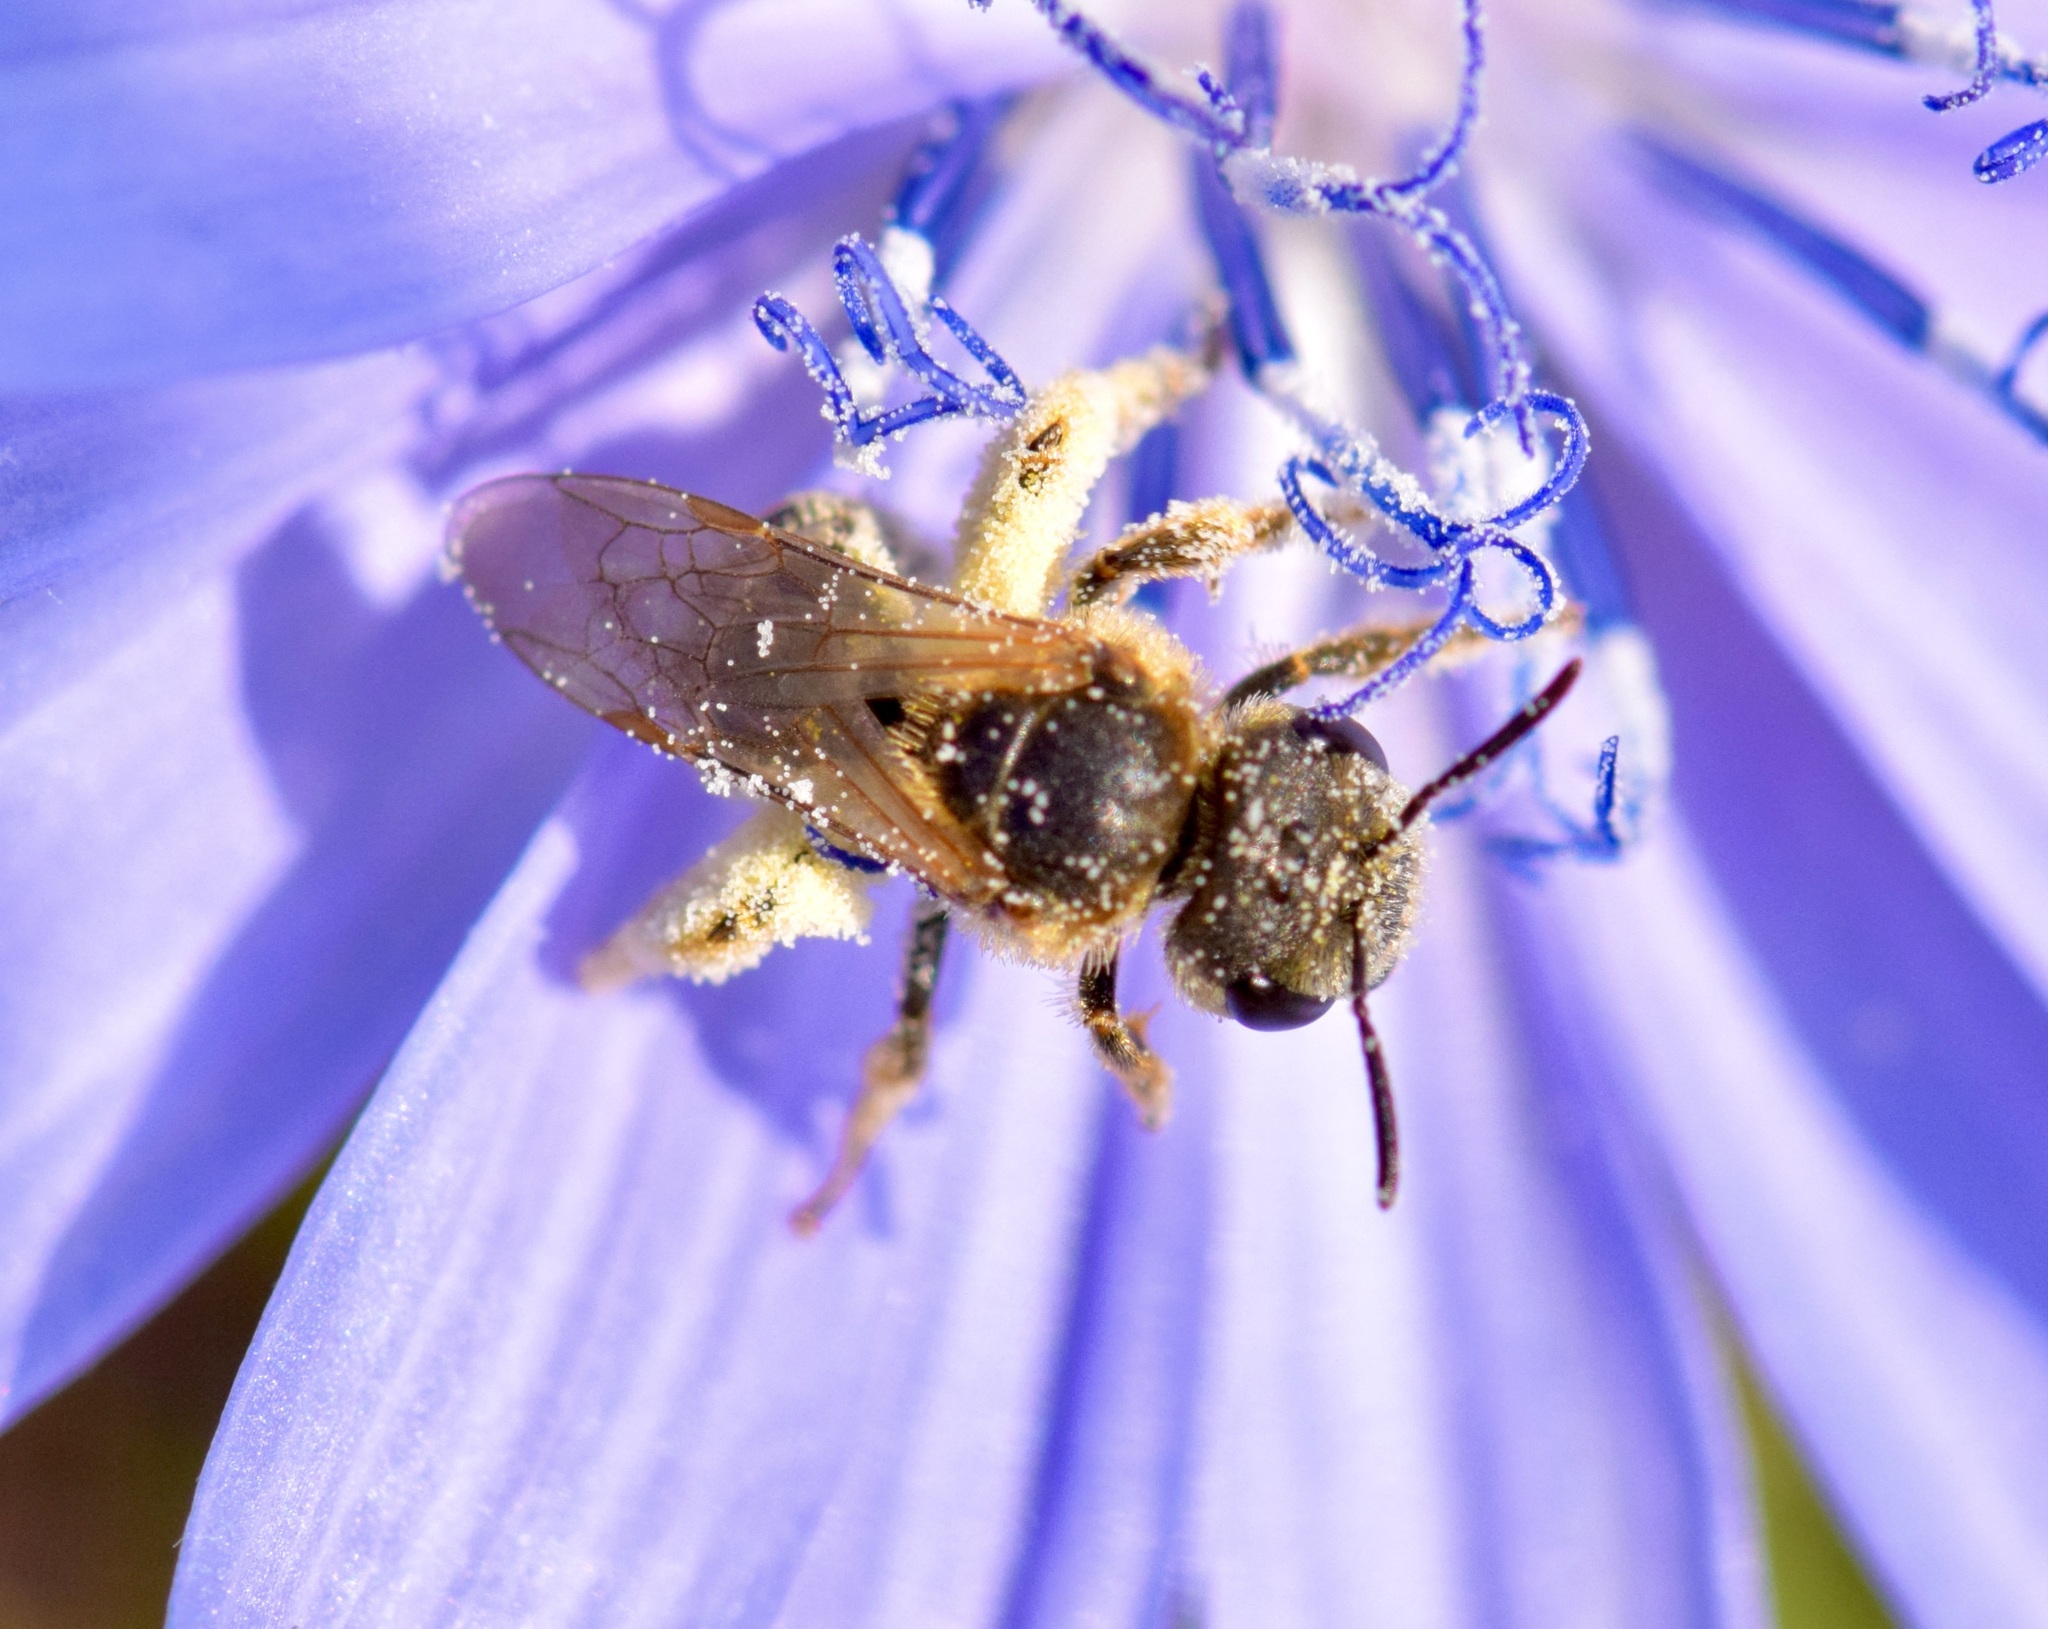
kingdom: Animalia
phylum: Arthropoda
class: Insecta
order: Hymenoptera
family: Halictidae
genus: Halictus
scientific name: Halictus ligatus
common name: Ligated furrow bee
